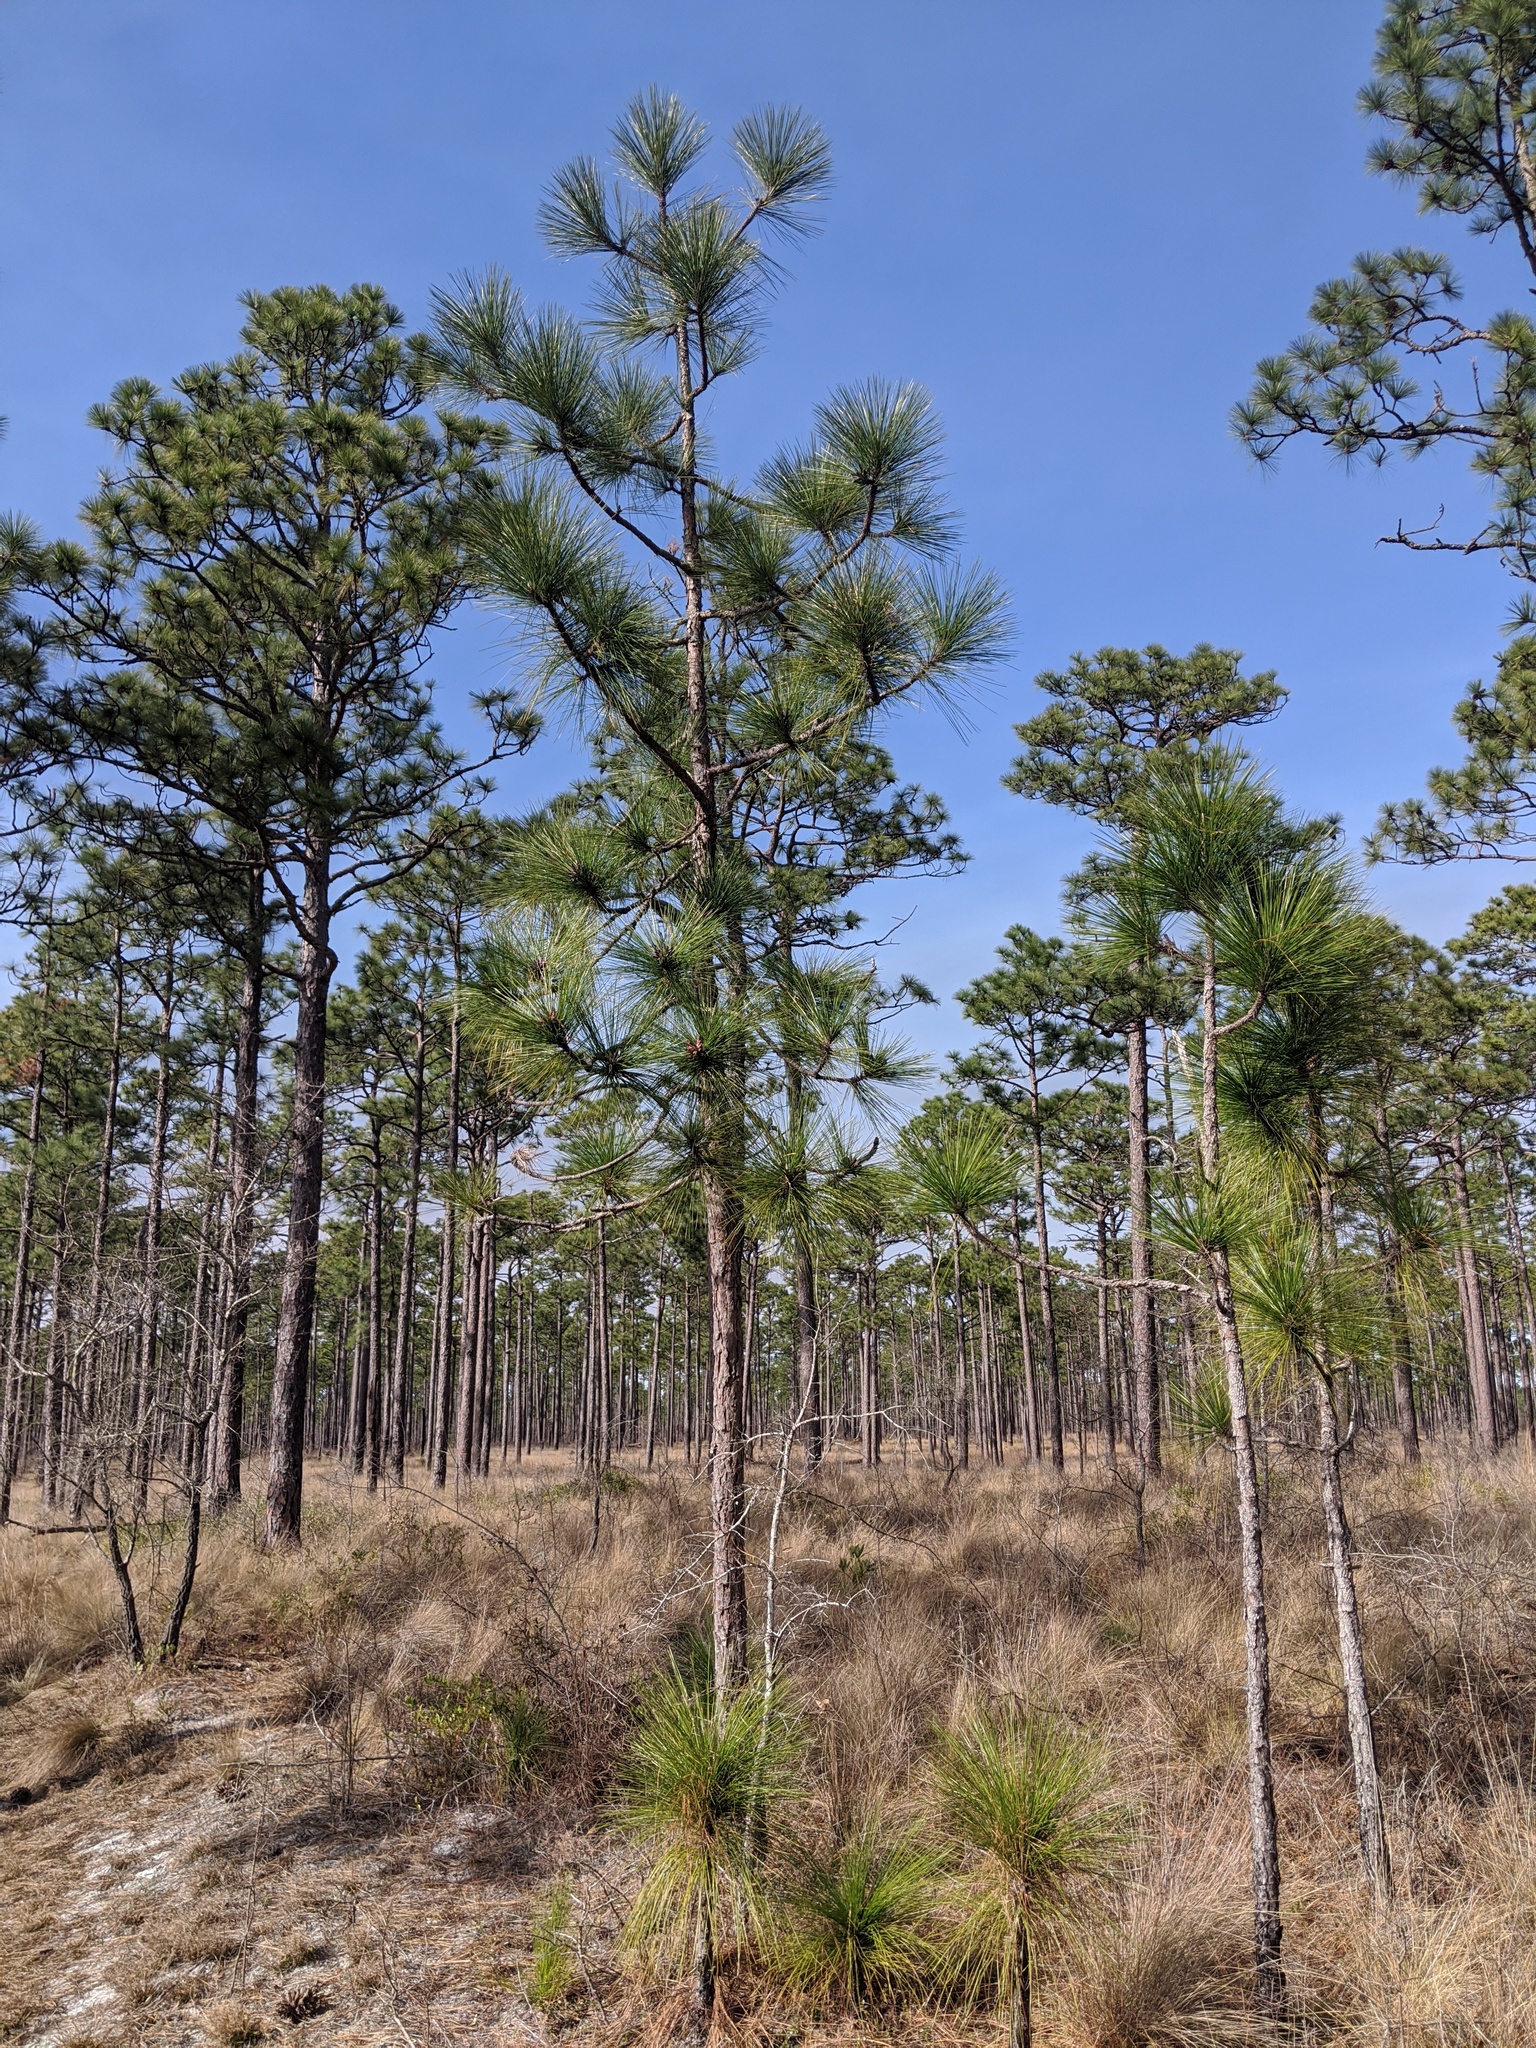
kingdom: Plantae
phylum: Tracheophyta
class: Pinopsida
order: Pinales
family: Pinaceae
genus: Pinus
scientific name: Pinus palustris
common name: Longleaf pine
